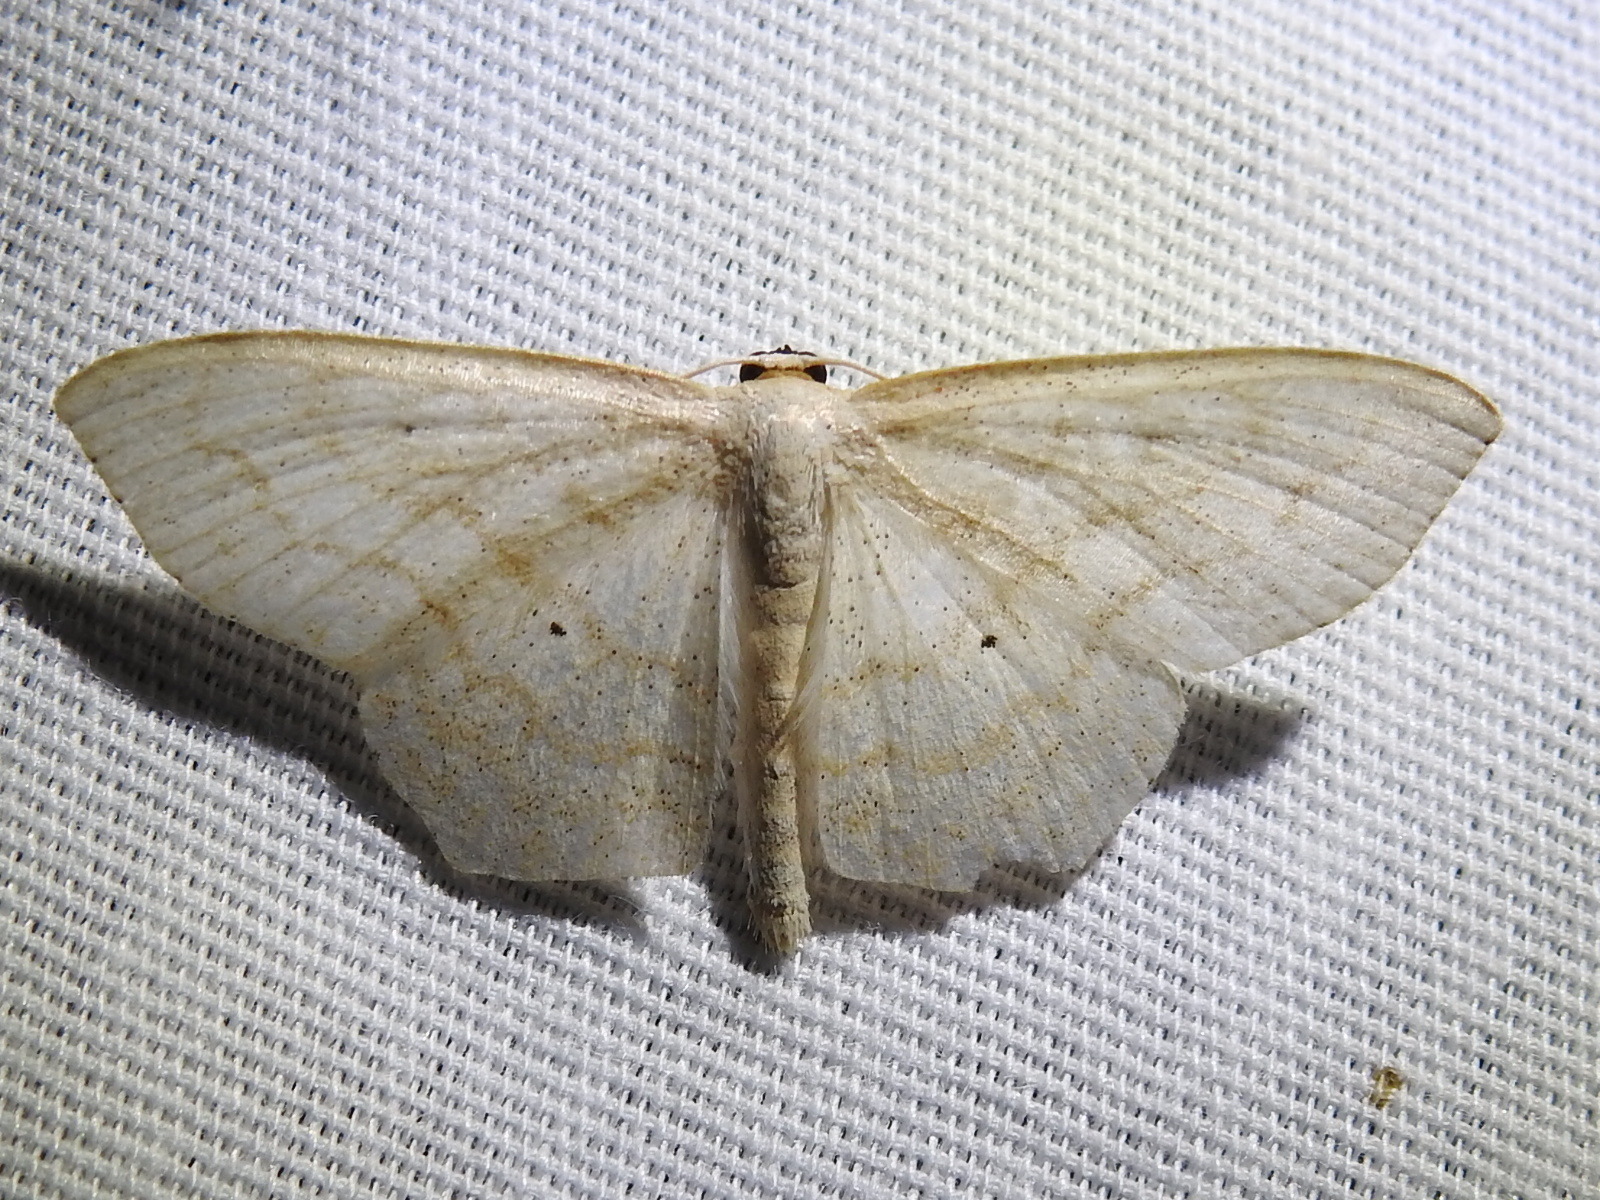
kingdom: Animalia
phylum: Arthropoda
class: Insecta
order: Lepidoptera
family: Geometridae
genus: Scopula
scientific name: Scopula limboundata
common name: Large lace border
